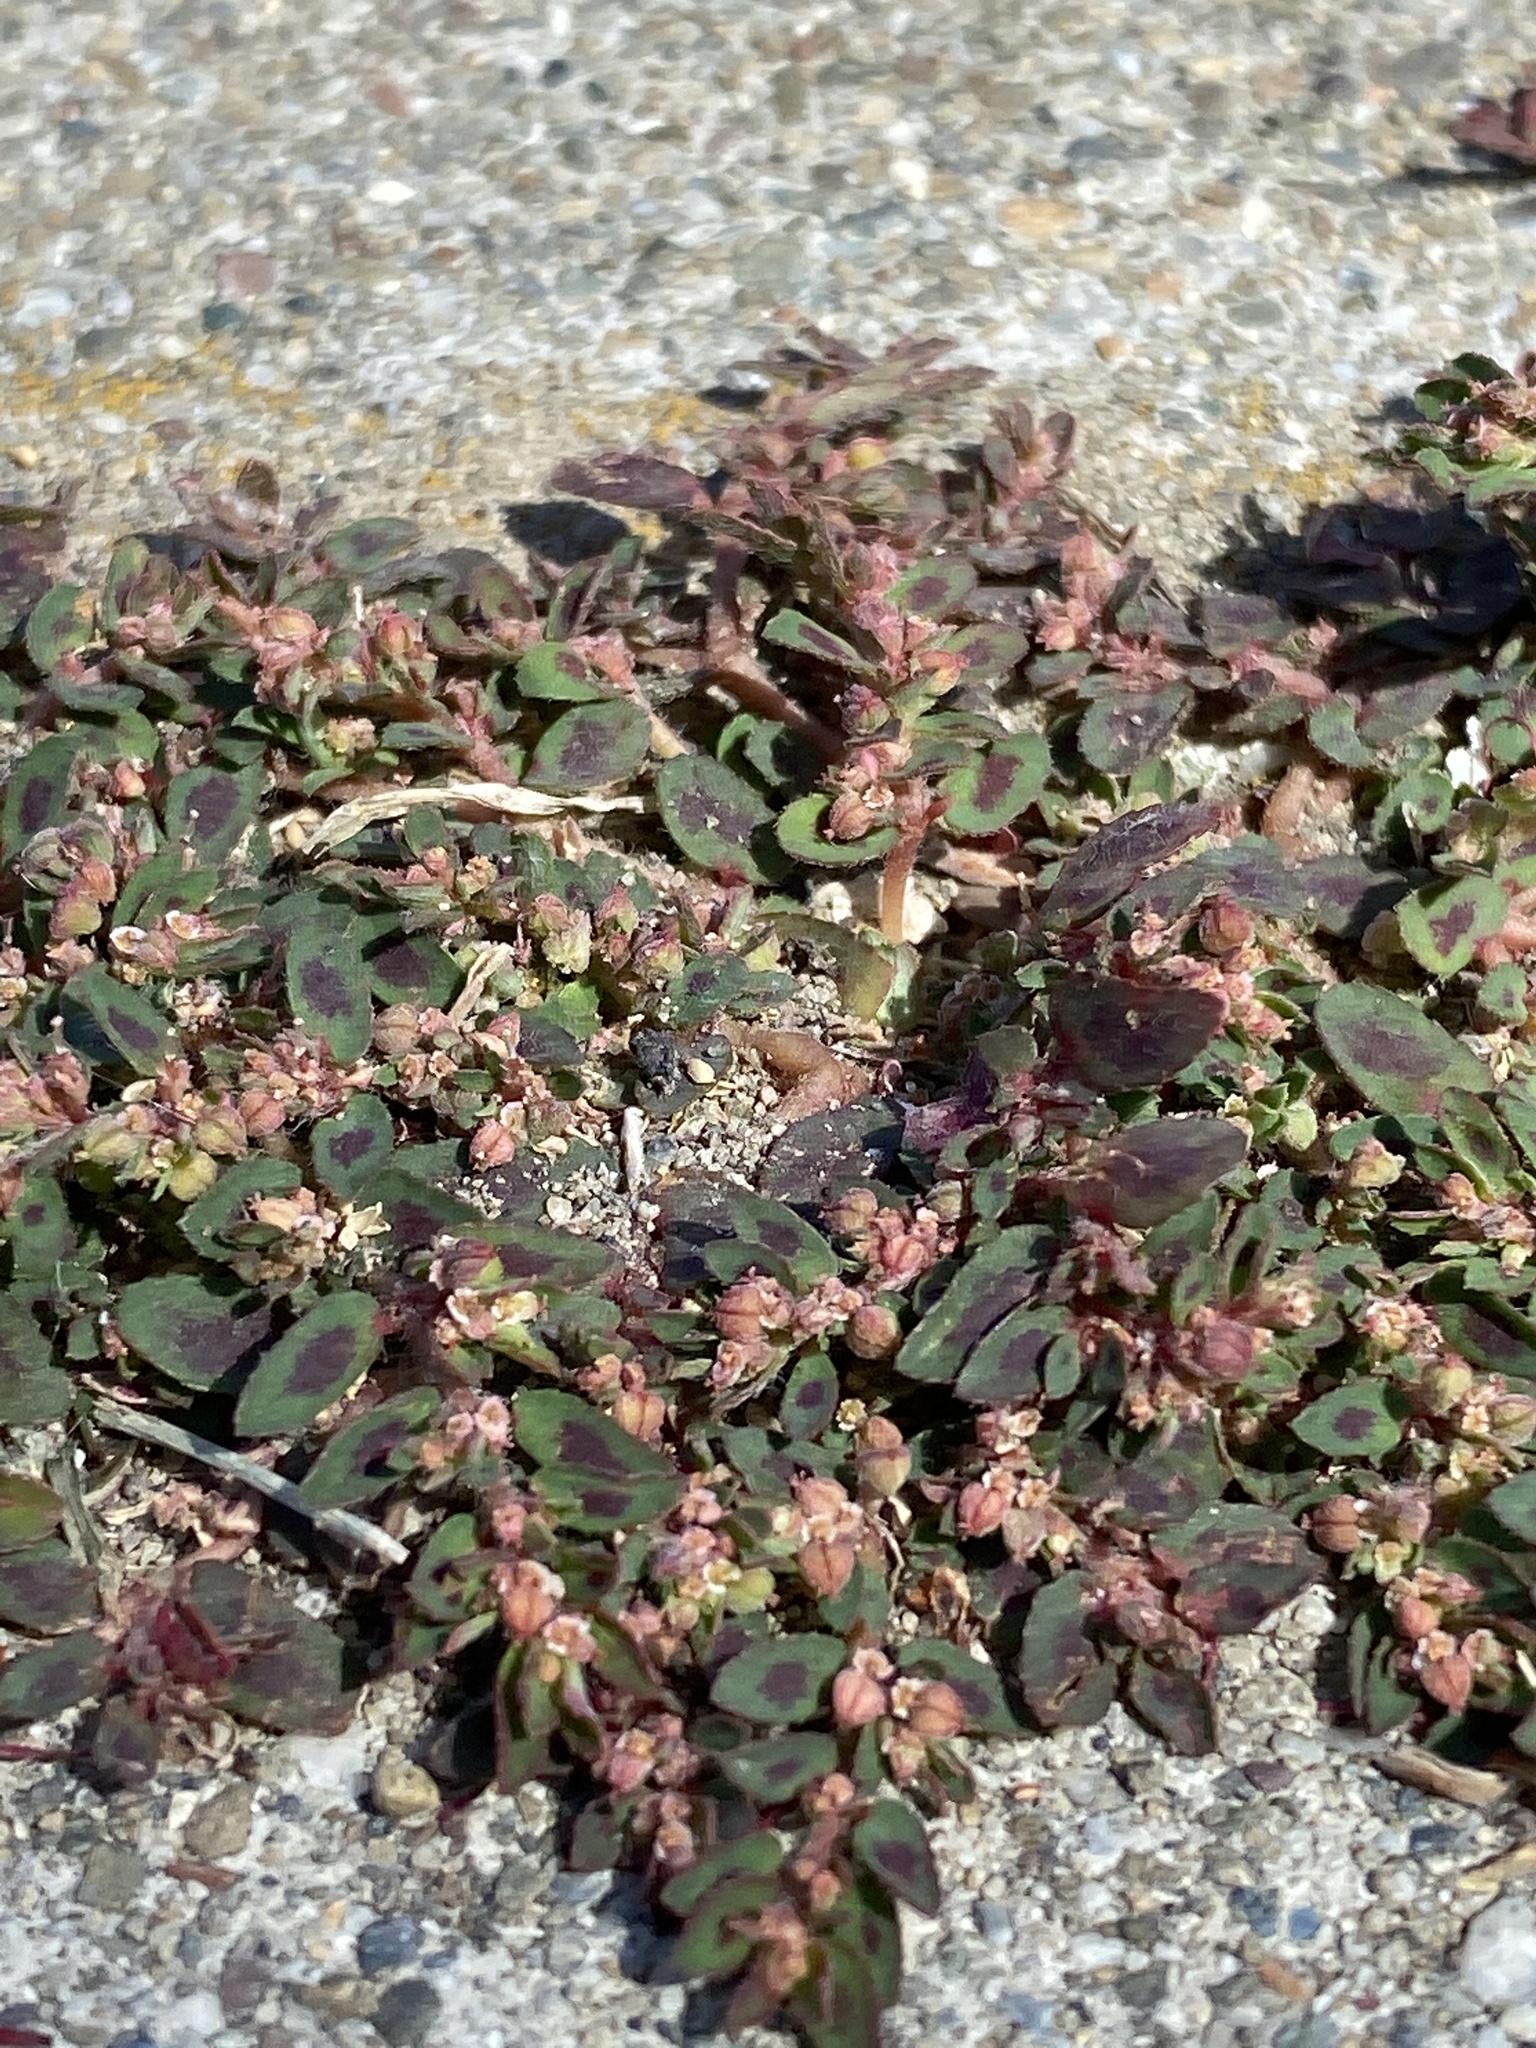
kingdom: Plantae
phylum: Tracheophyta
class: Magnoliopsida
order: Malpighiales
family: Euphorbiaceae
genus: Euphorbia
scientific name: Euphorbia maculata
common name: Spotted spurge
